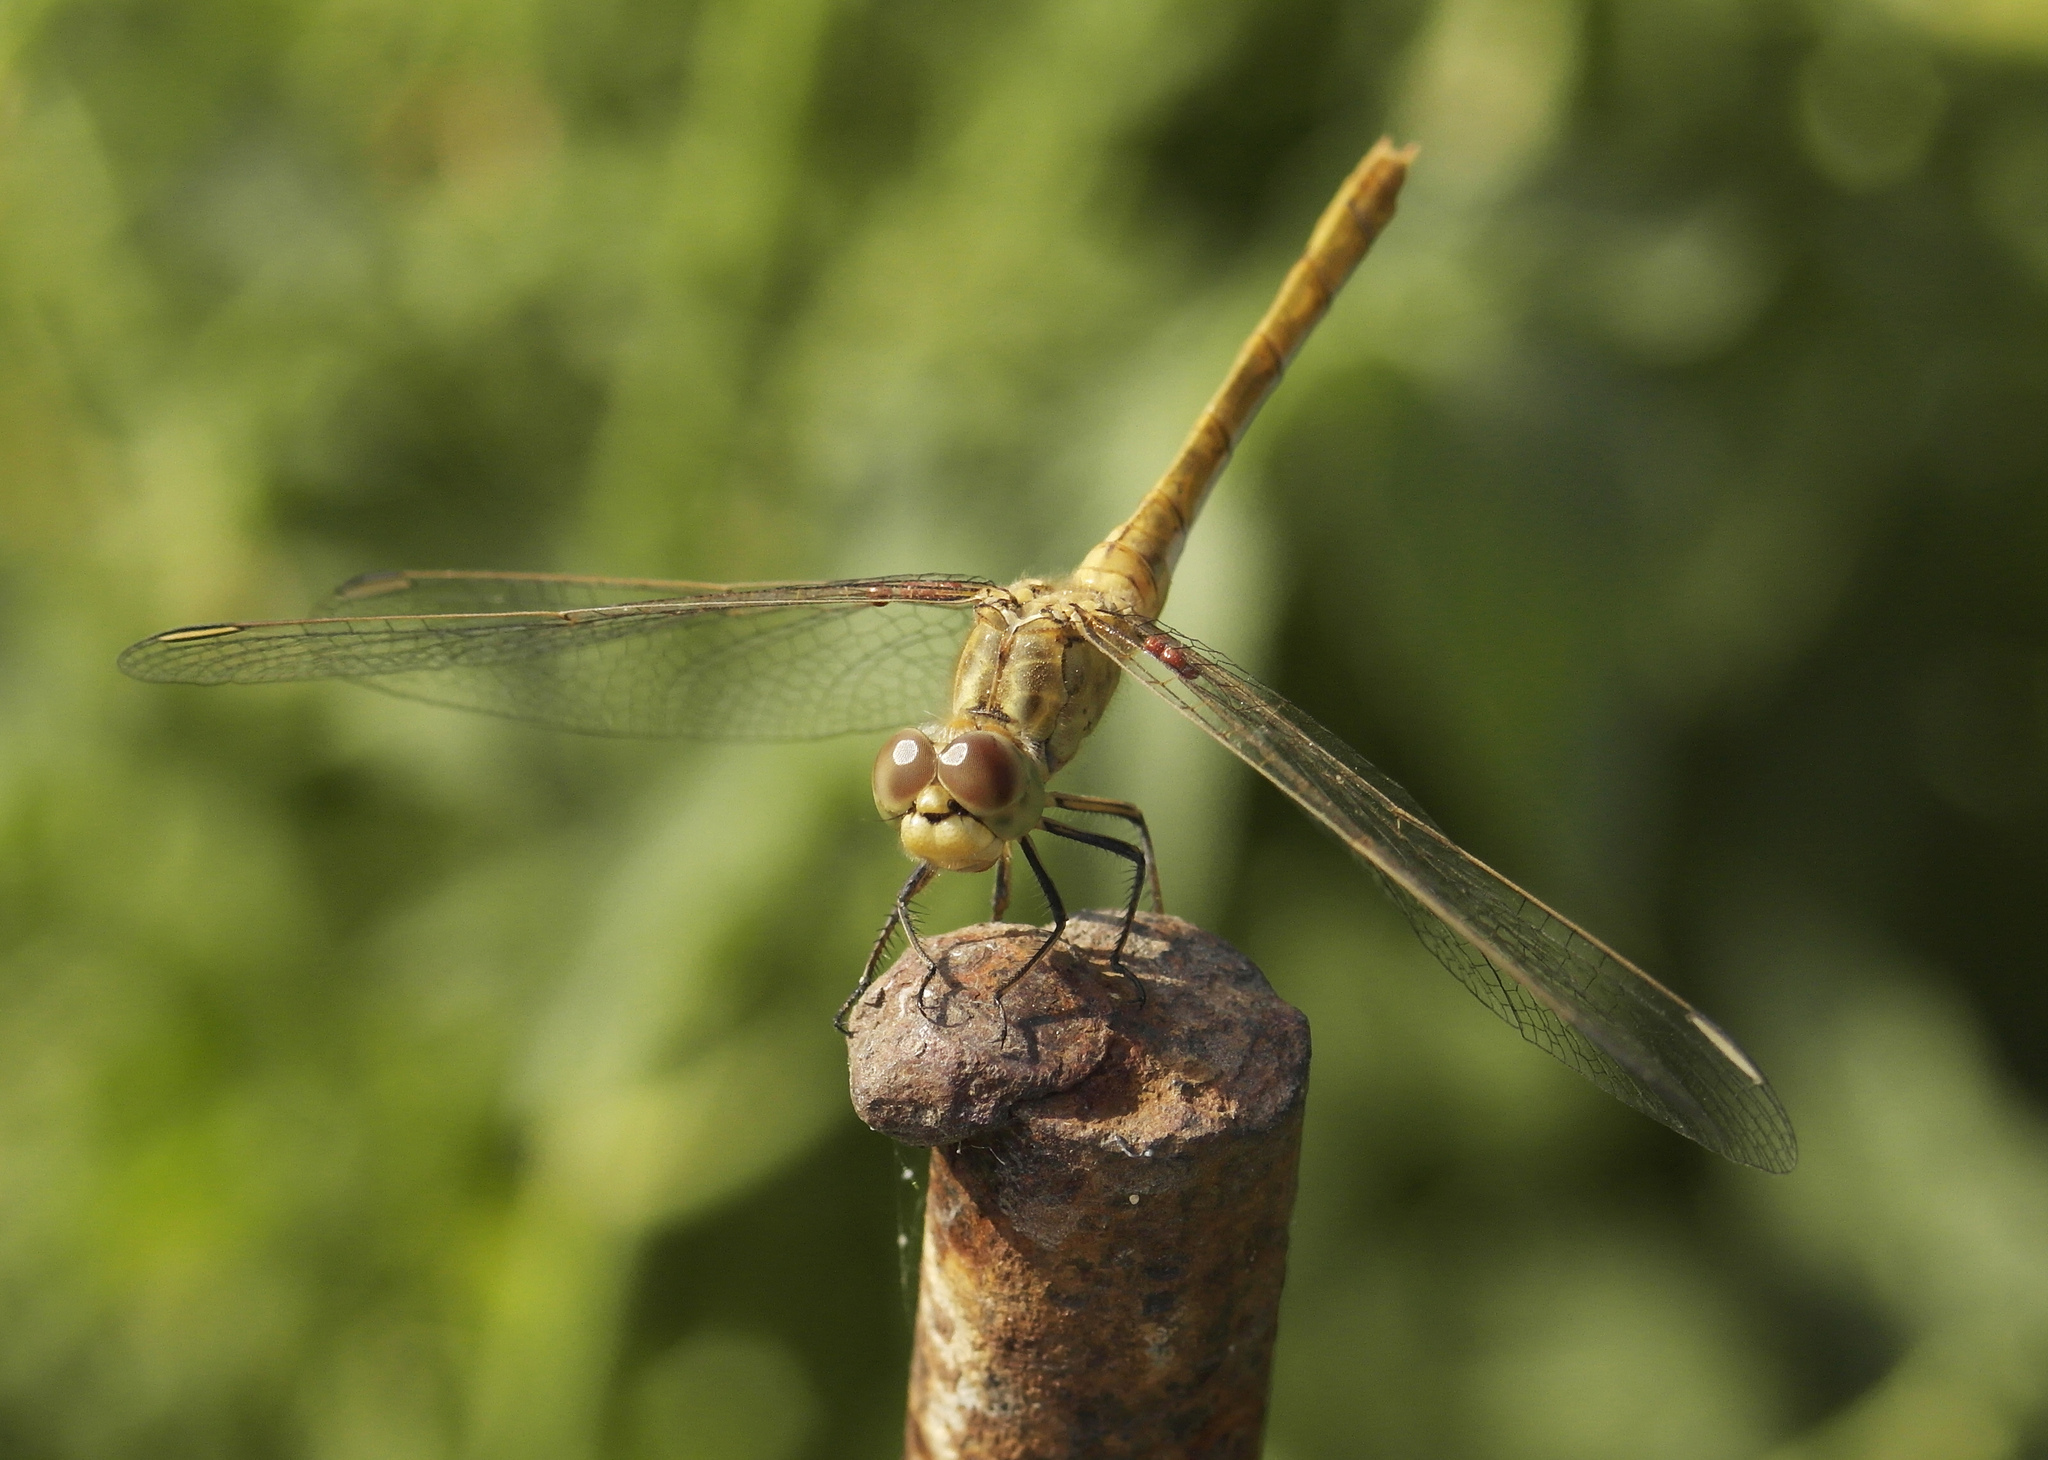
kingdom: Animalia
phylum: Arthropoda
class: Insecta
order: Odonata
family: Libellulidae
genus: Sympetrum
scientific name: Sympetrum meridionale
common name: Southern darter
